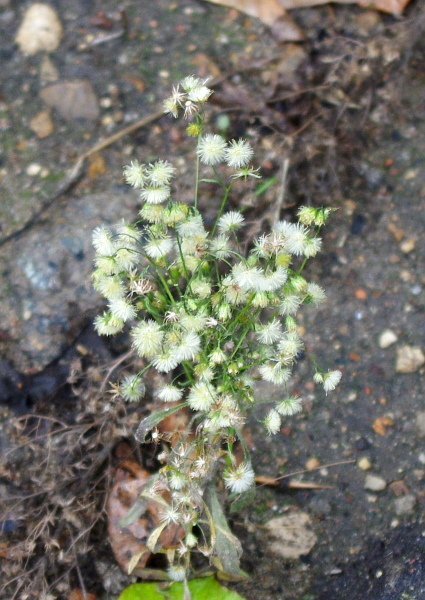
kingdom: Plantae
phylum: Tracheophyta
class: Magnoliopsida
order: Asterales
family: Asteraceae
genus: Erigeron
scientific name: Erigeron canadensis
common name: Canadian fleabane
